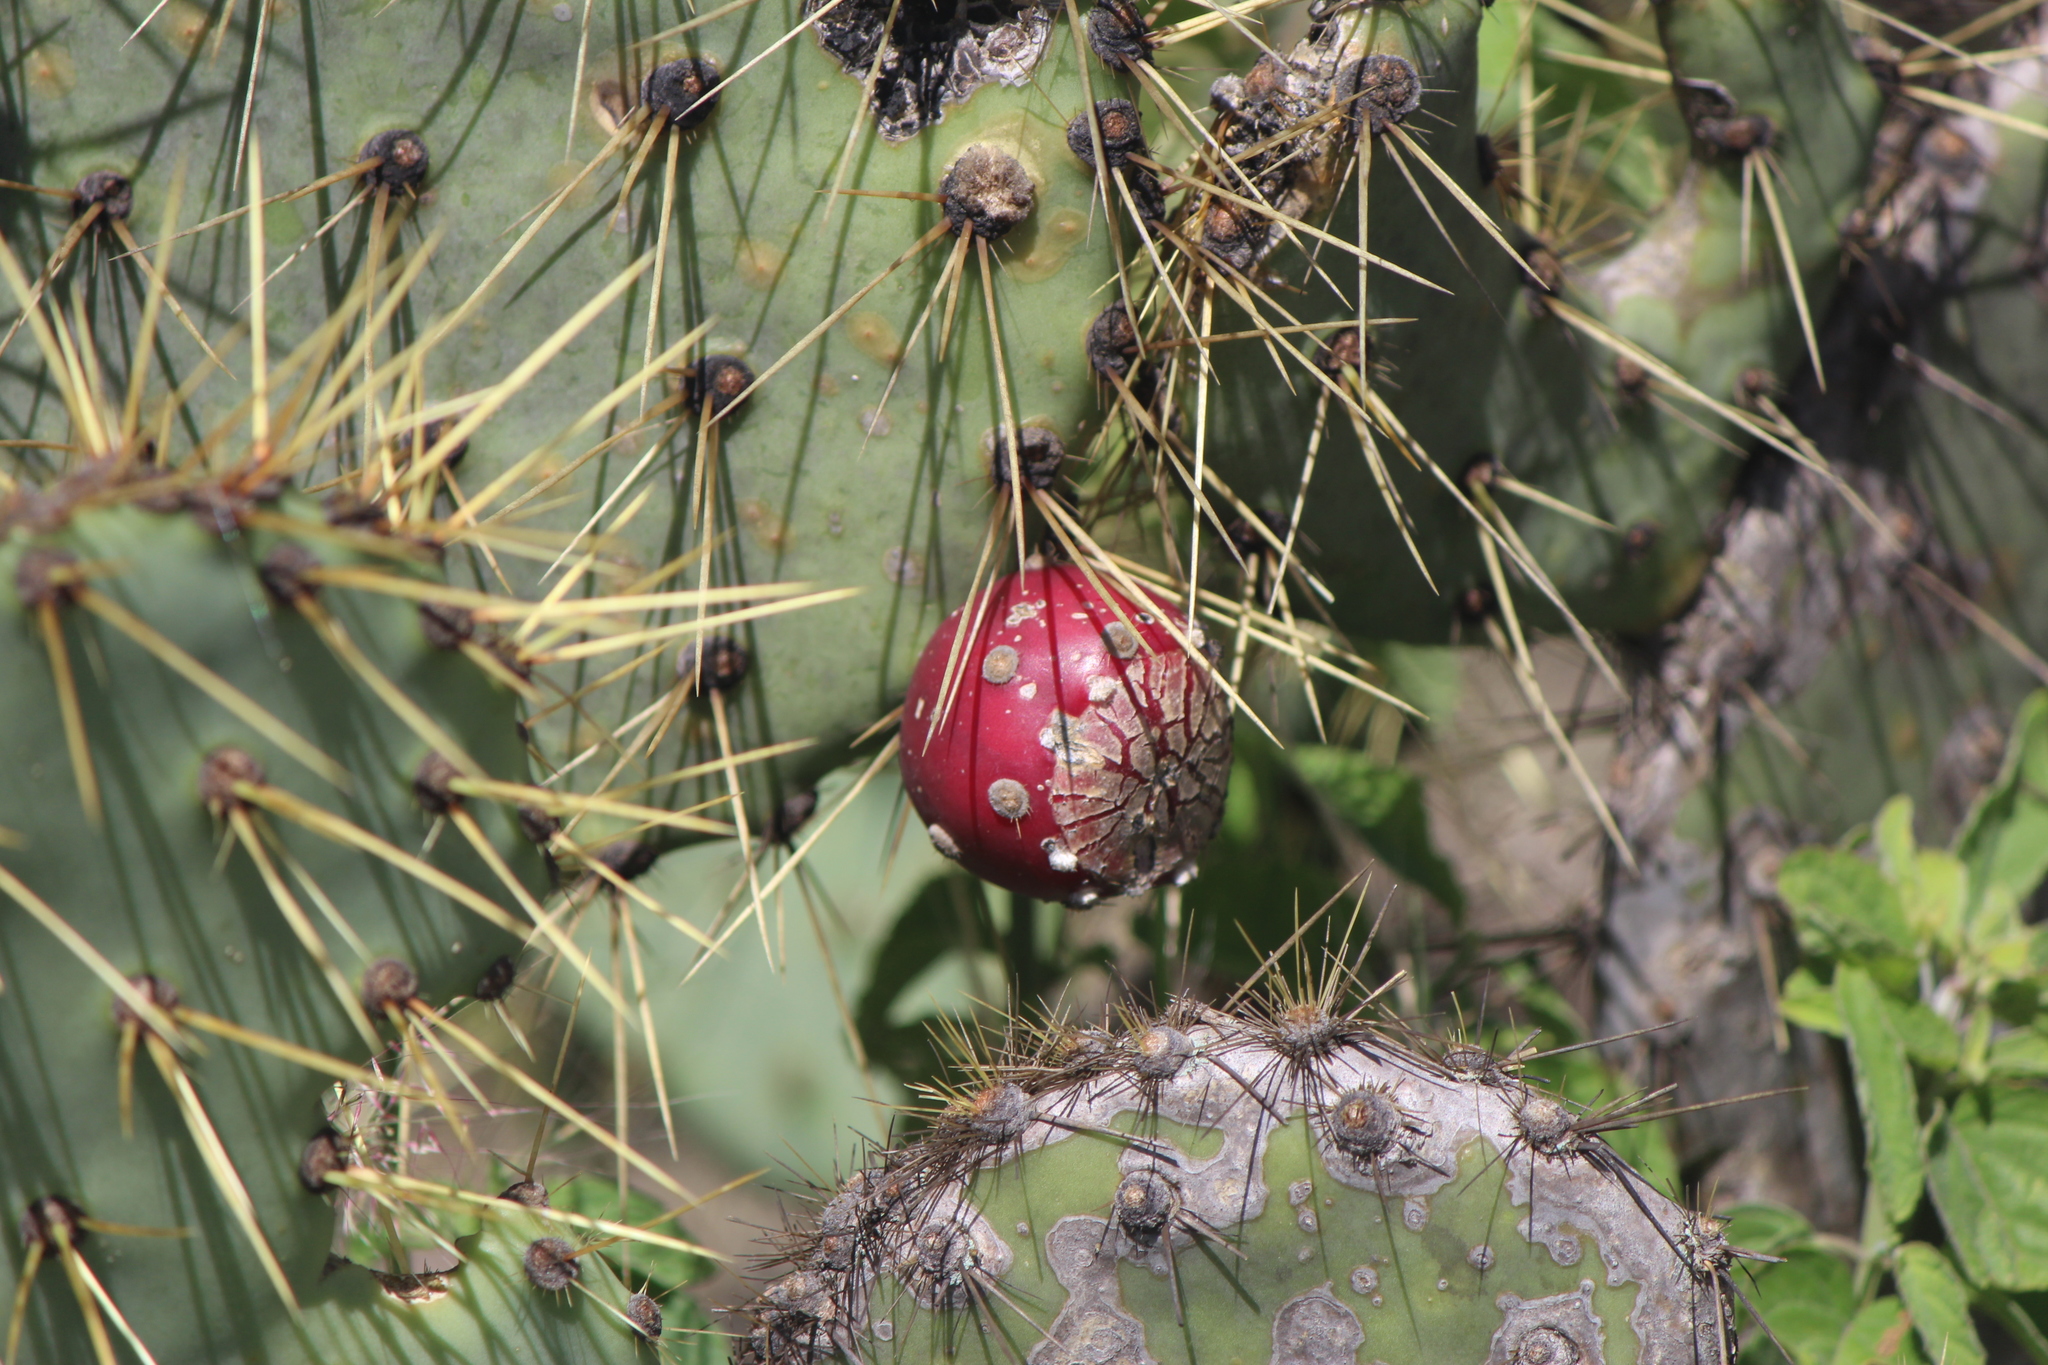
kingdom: Plantae
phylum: Tracheophyta
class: Magnoliopsida
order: Caryophyllales
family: Cactaceae
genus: Opuntia
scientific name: Opuntia engelmannii
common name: Cactus-apple
